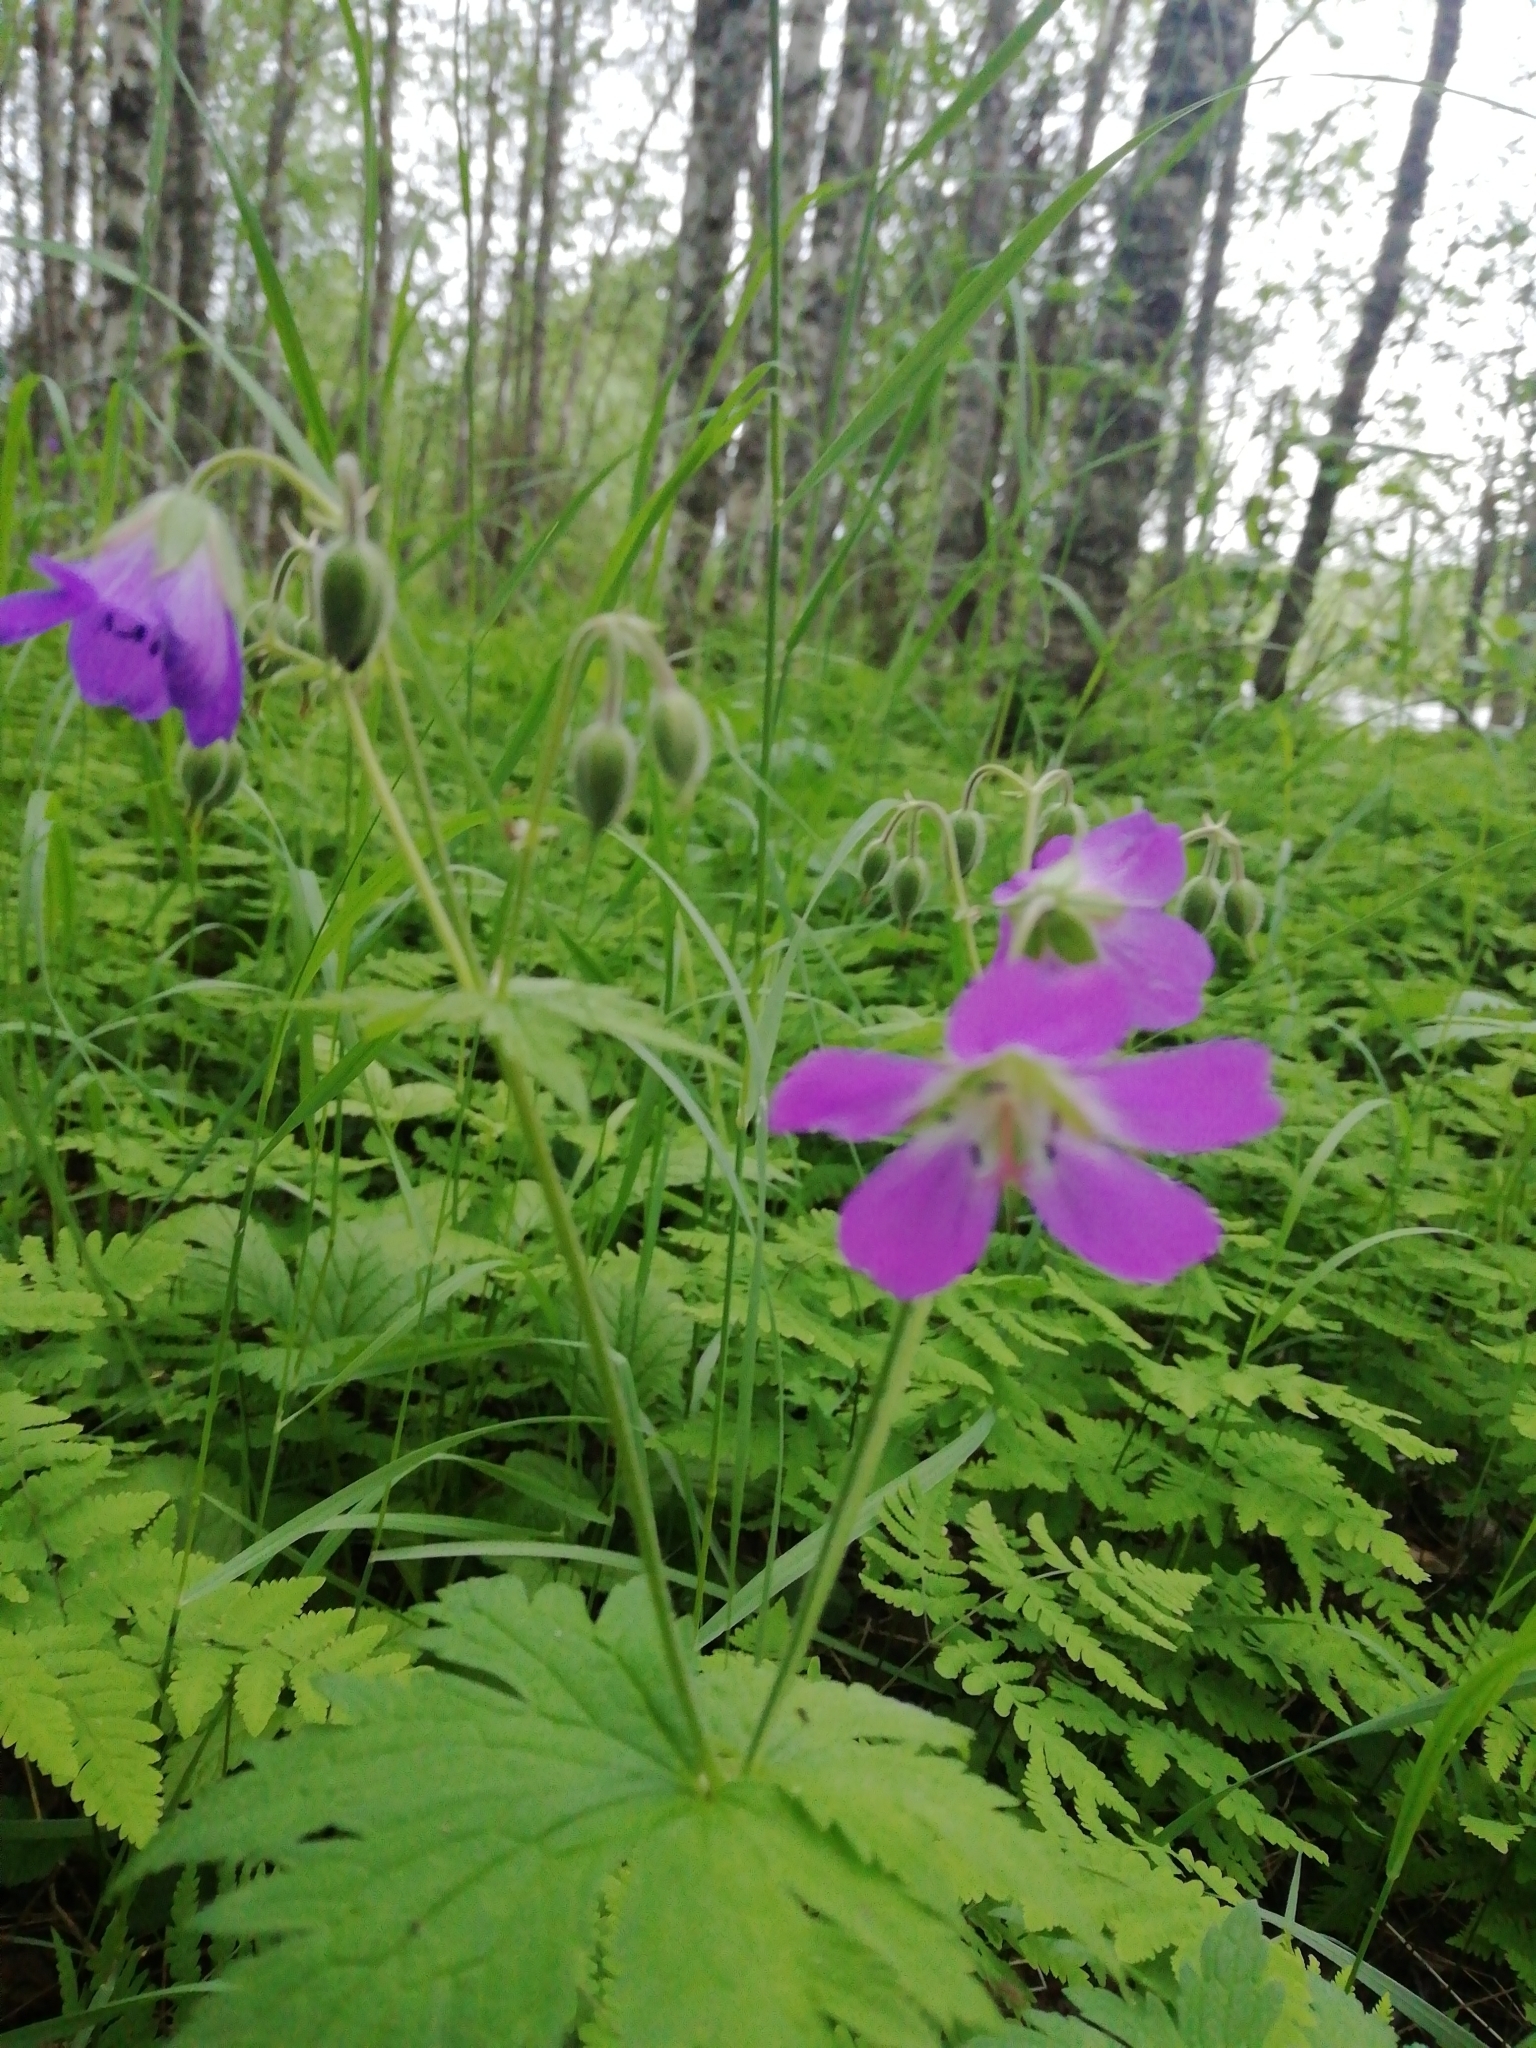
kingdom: Plantae
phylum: Tracheophyta
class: Magnoliopsida
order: Geraniales
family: Geraniaceae
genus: Geranium
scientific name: Geranium sylvaticum
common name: Wood crane's-bill
